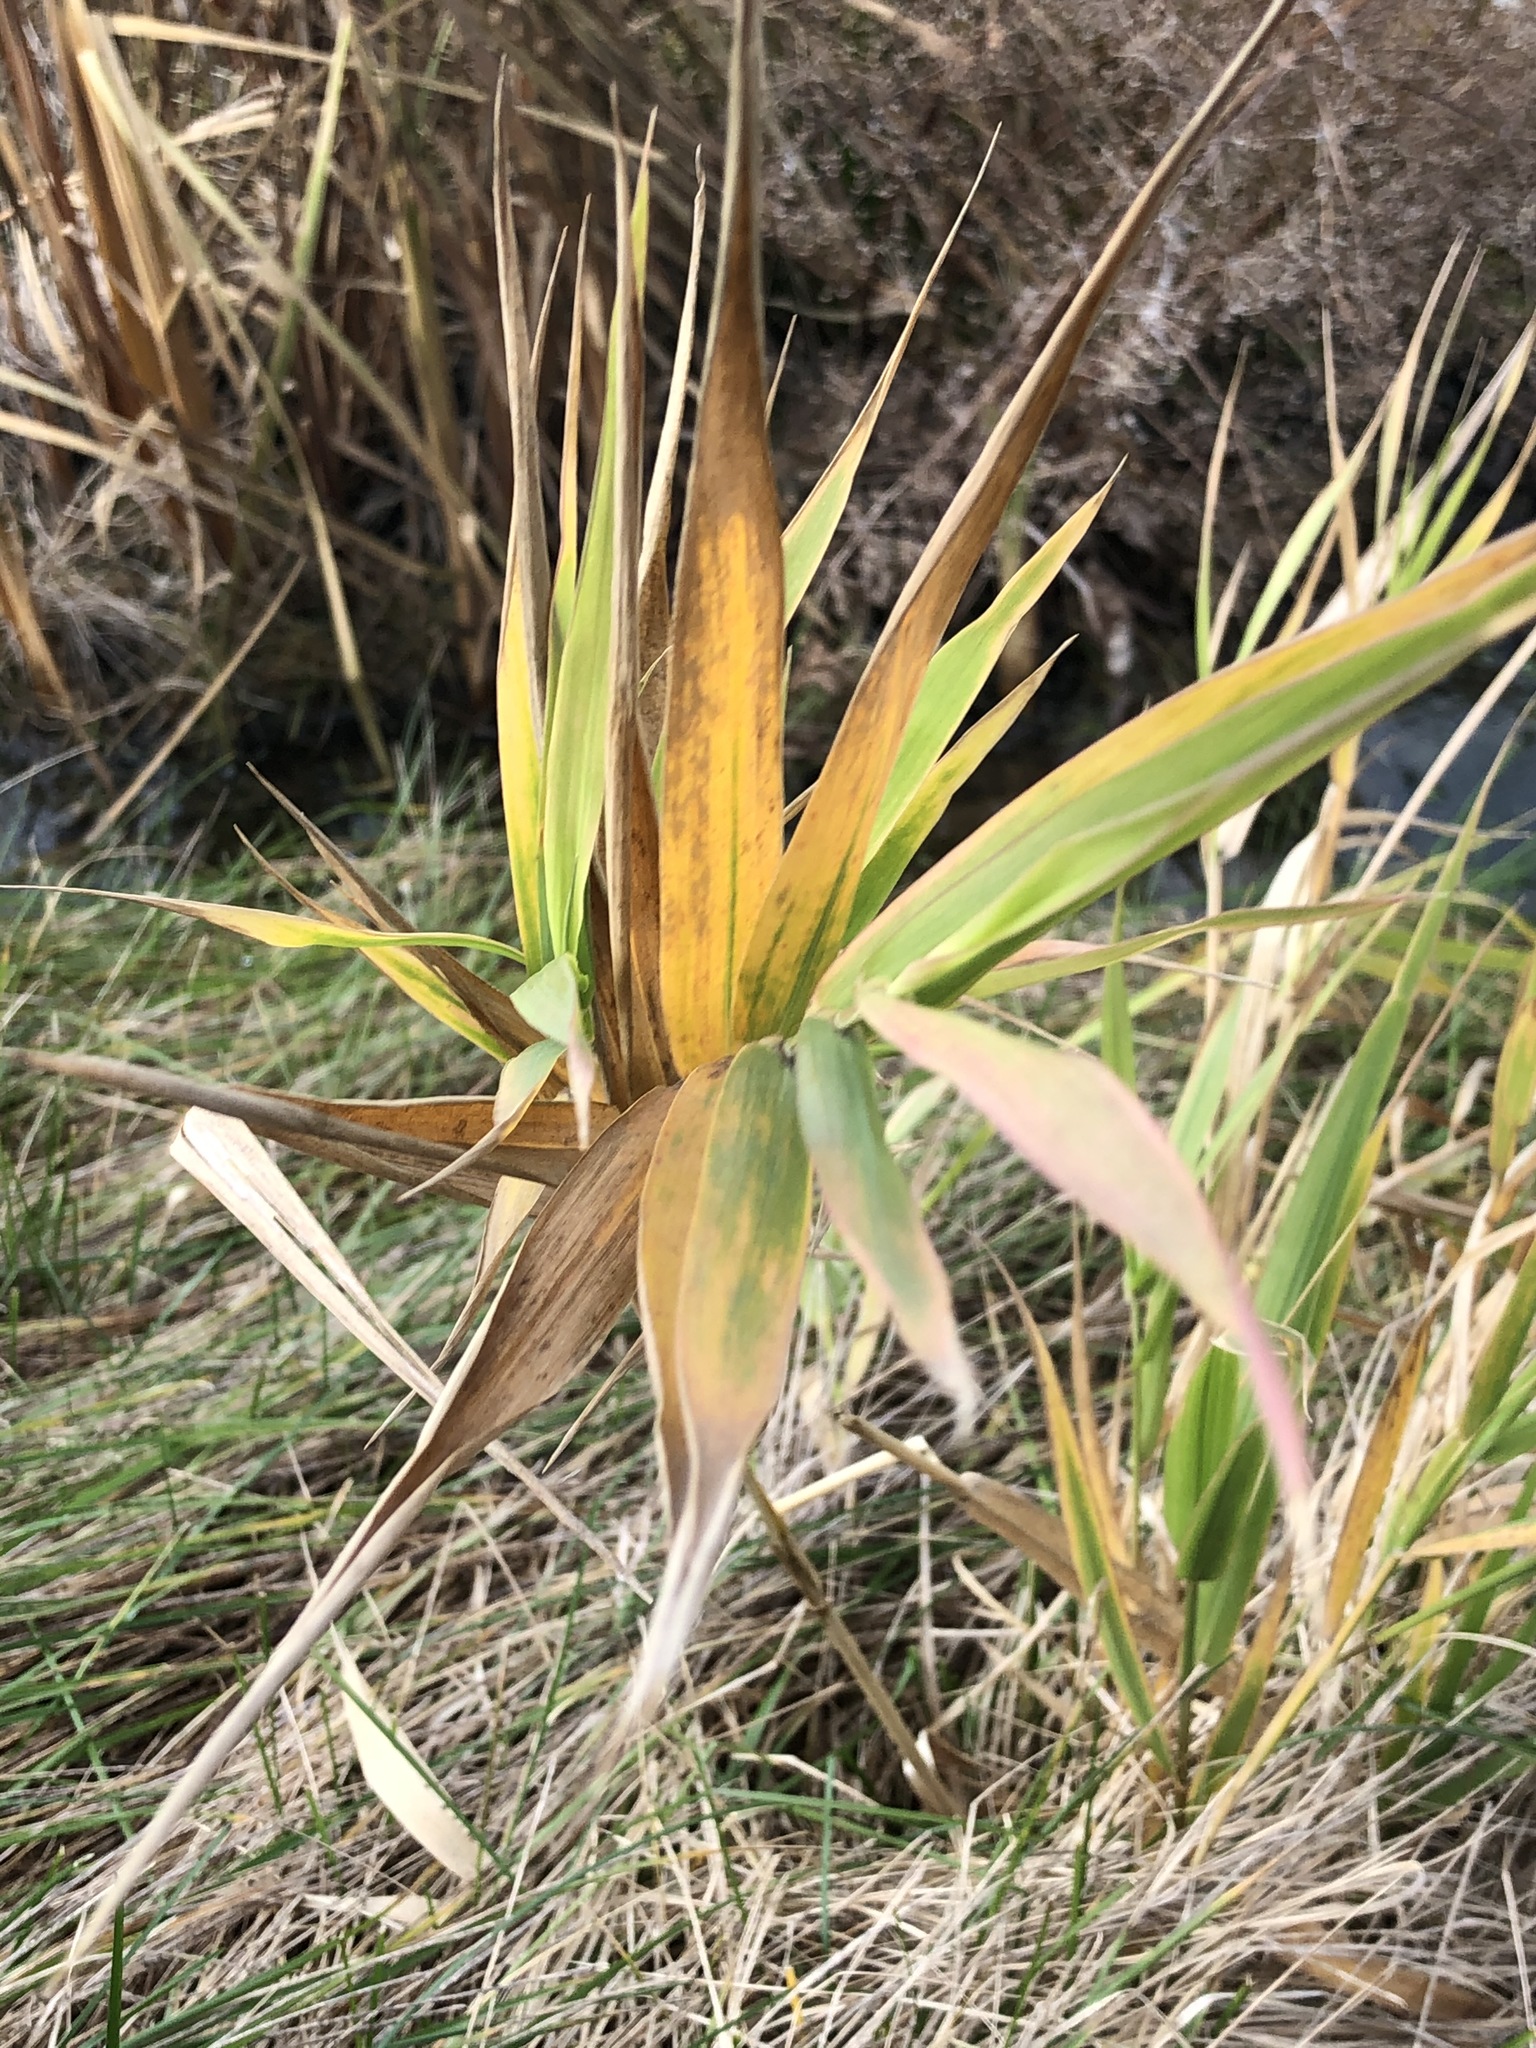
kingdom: Plantae
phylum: Tracheophyta
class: Liliopsida
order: Poales
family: Poaceae
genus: Phragmites
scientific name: Phragmites australis
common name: Common reed
